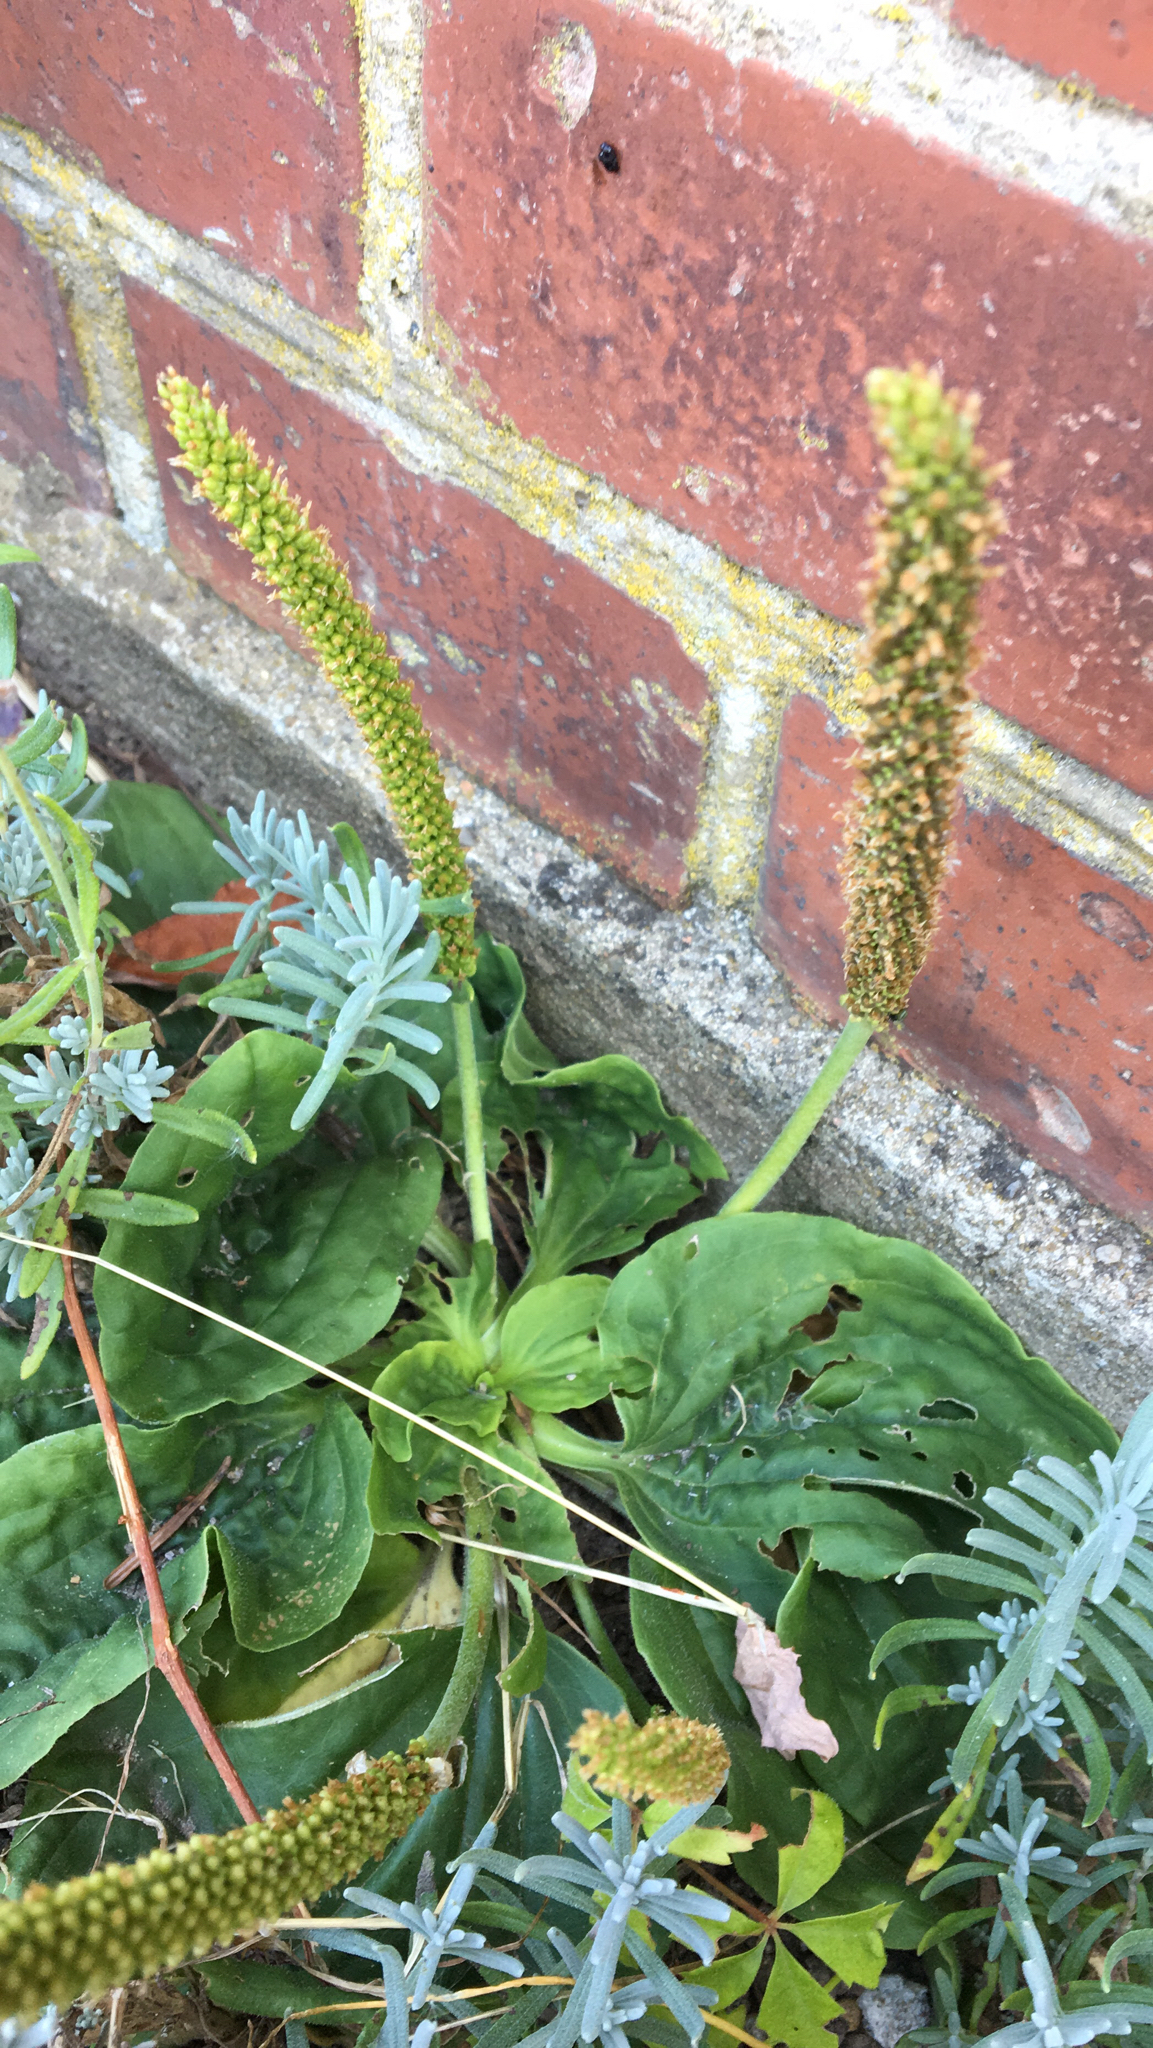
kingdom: Plantae
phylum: Tracheophyta
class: Magnoliopsida
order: Lamiales
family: Plantaginaceae
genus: Plantago
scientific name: Plantago major
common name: Common plantain
